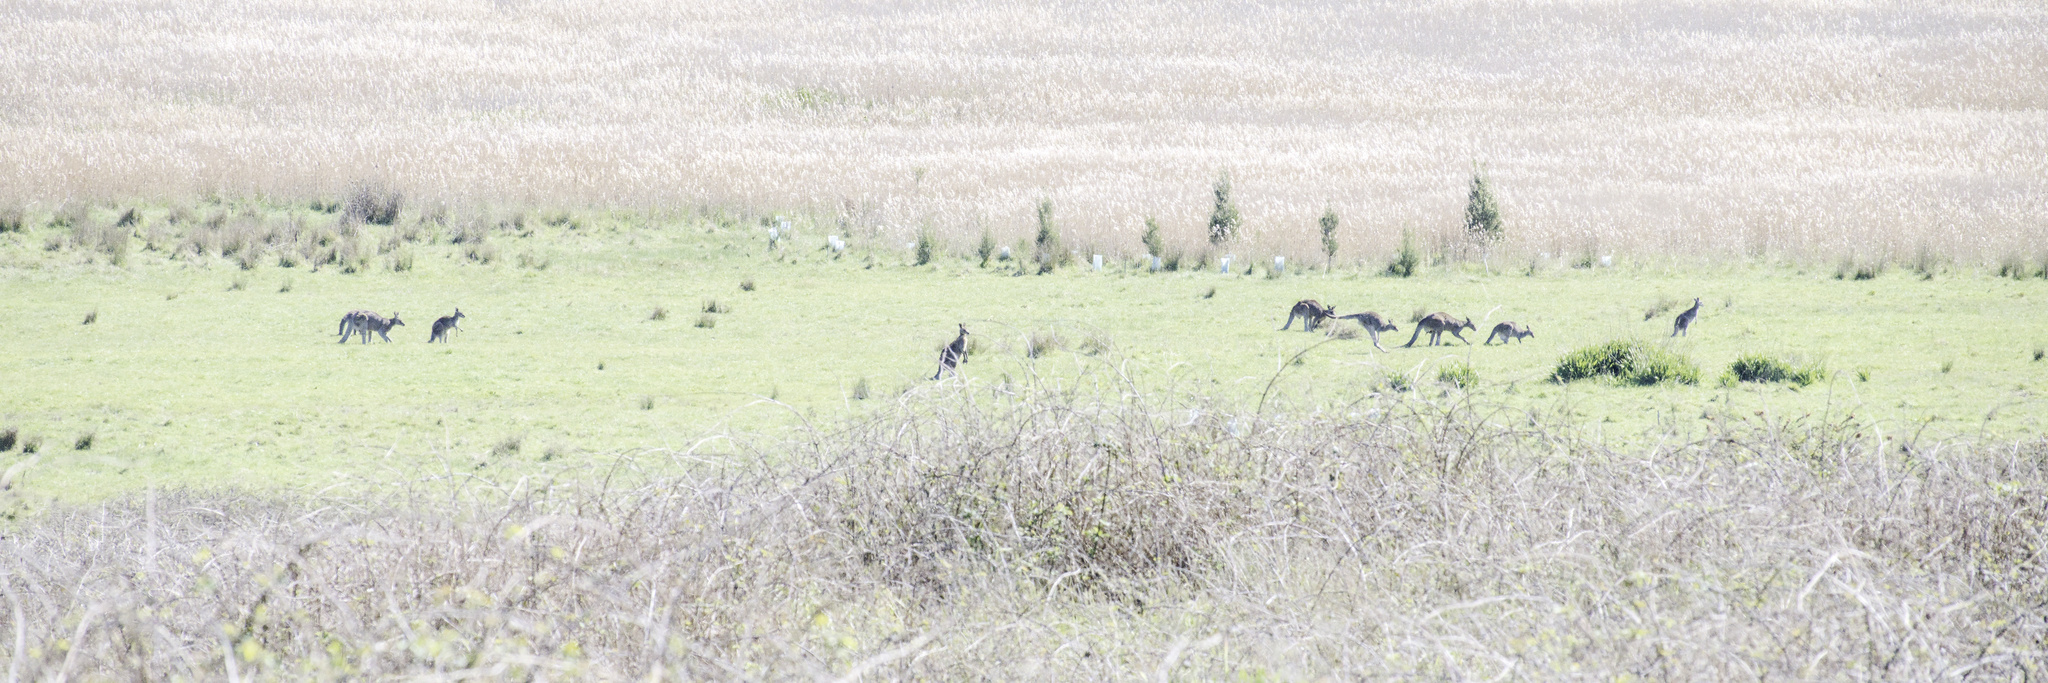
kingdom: Animalia
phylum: Chordata
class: Mammalia
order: Diprotodontia
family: Macropodidae
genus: Macropus
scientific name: Macropus giganteus
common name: Eastern grey kangaroo
